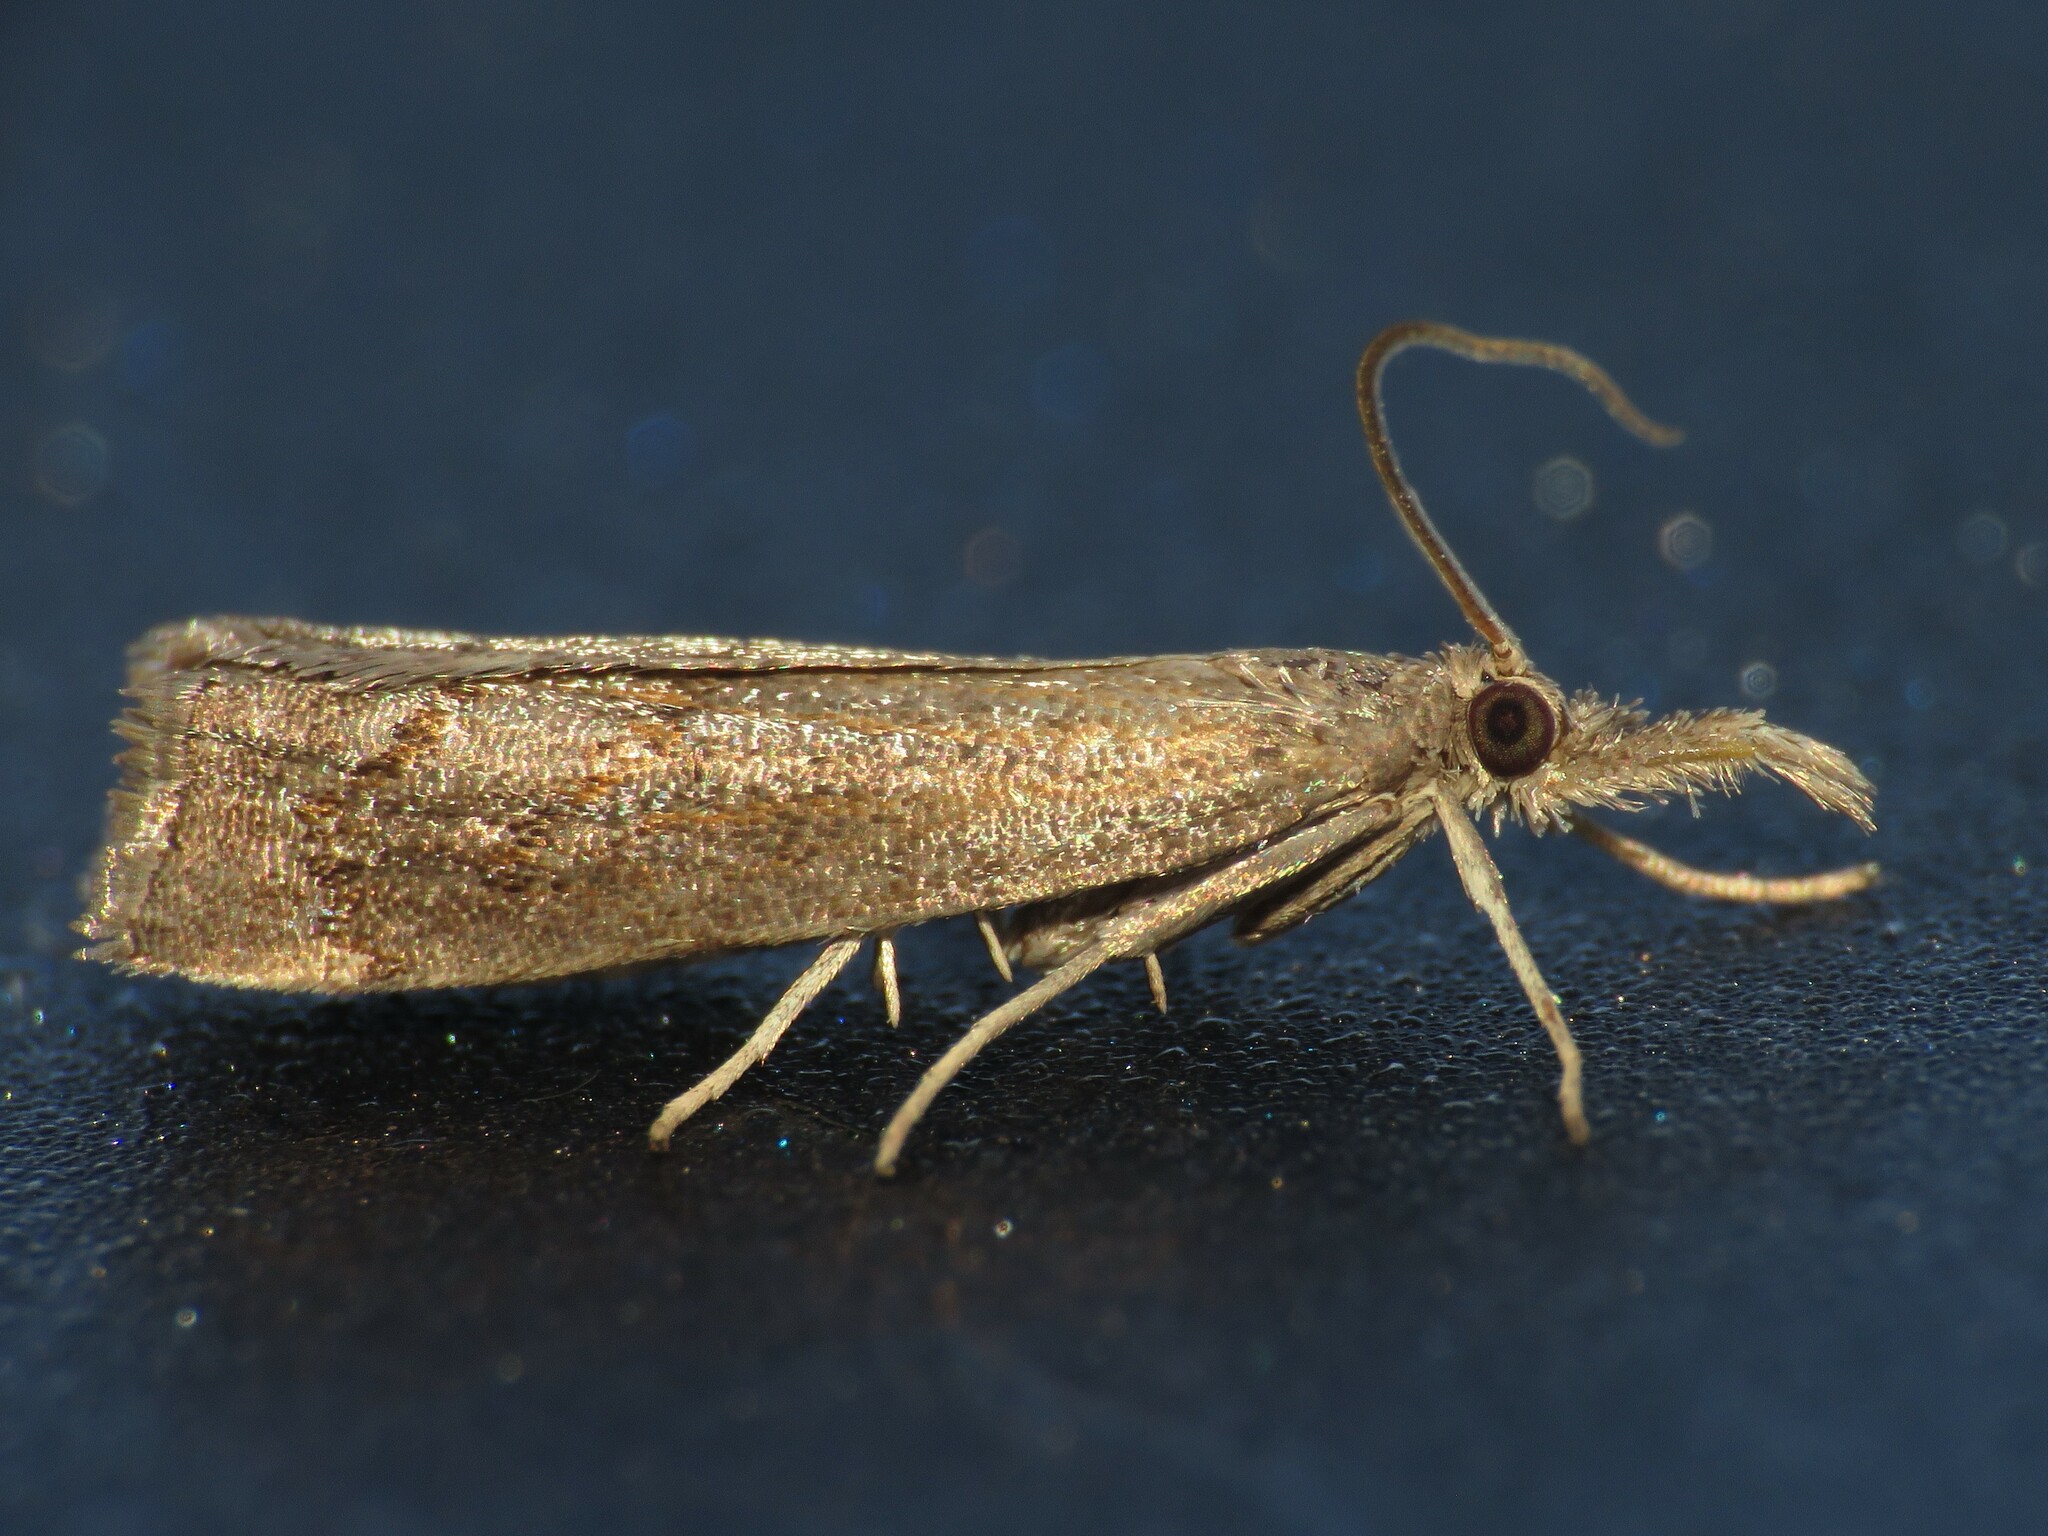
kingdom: Animalia
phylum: Arthropoda
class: Insecta
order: Lepidoptera
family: Crambidae
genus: Neodactria
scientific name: Neodactria luteolellus
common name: Mottled grass-veneer
